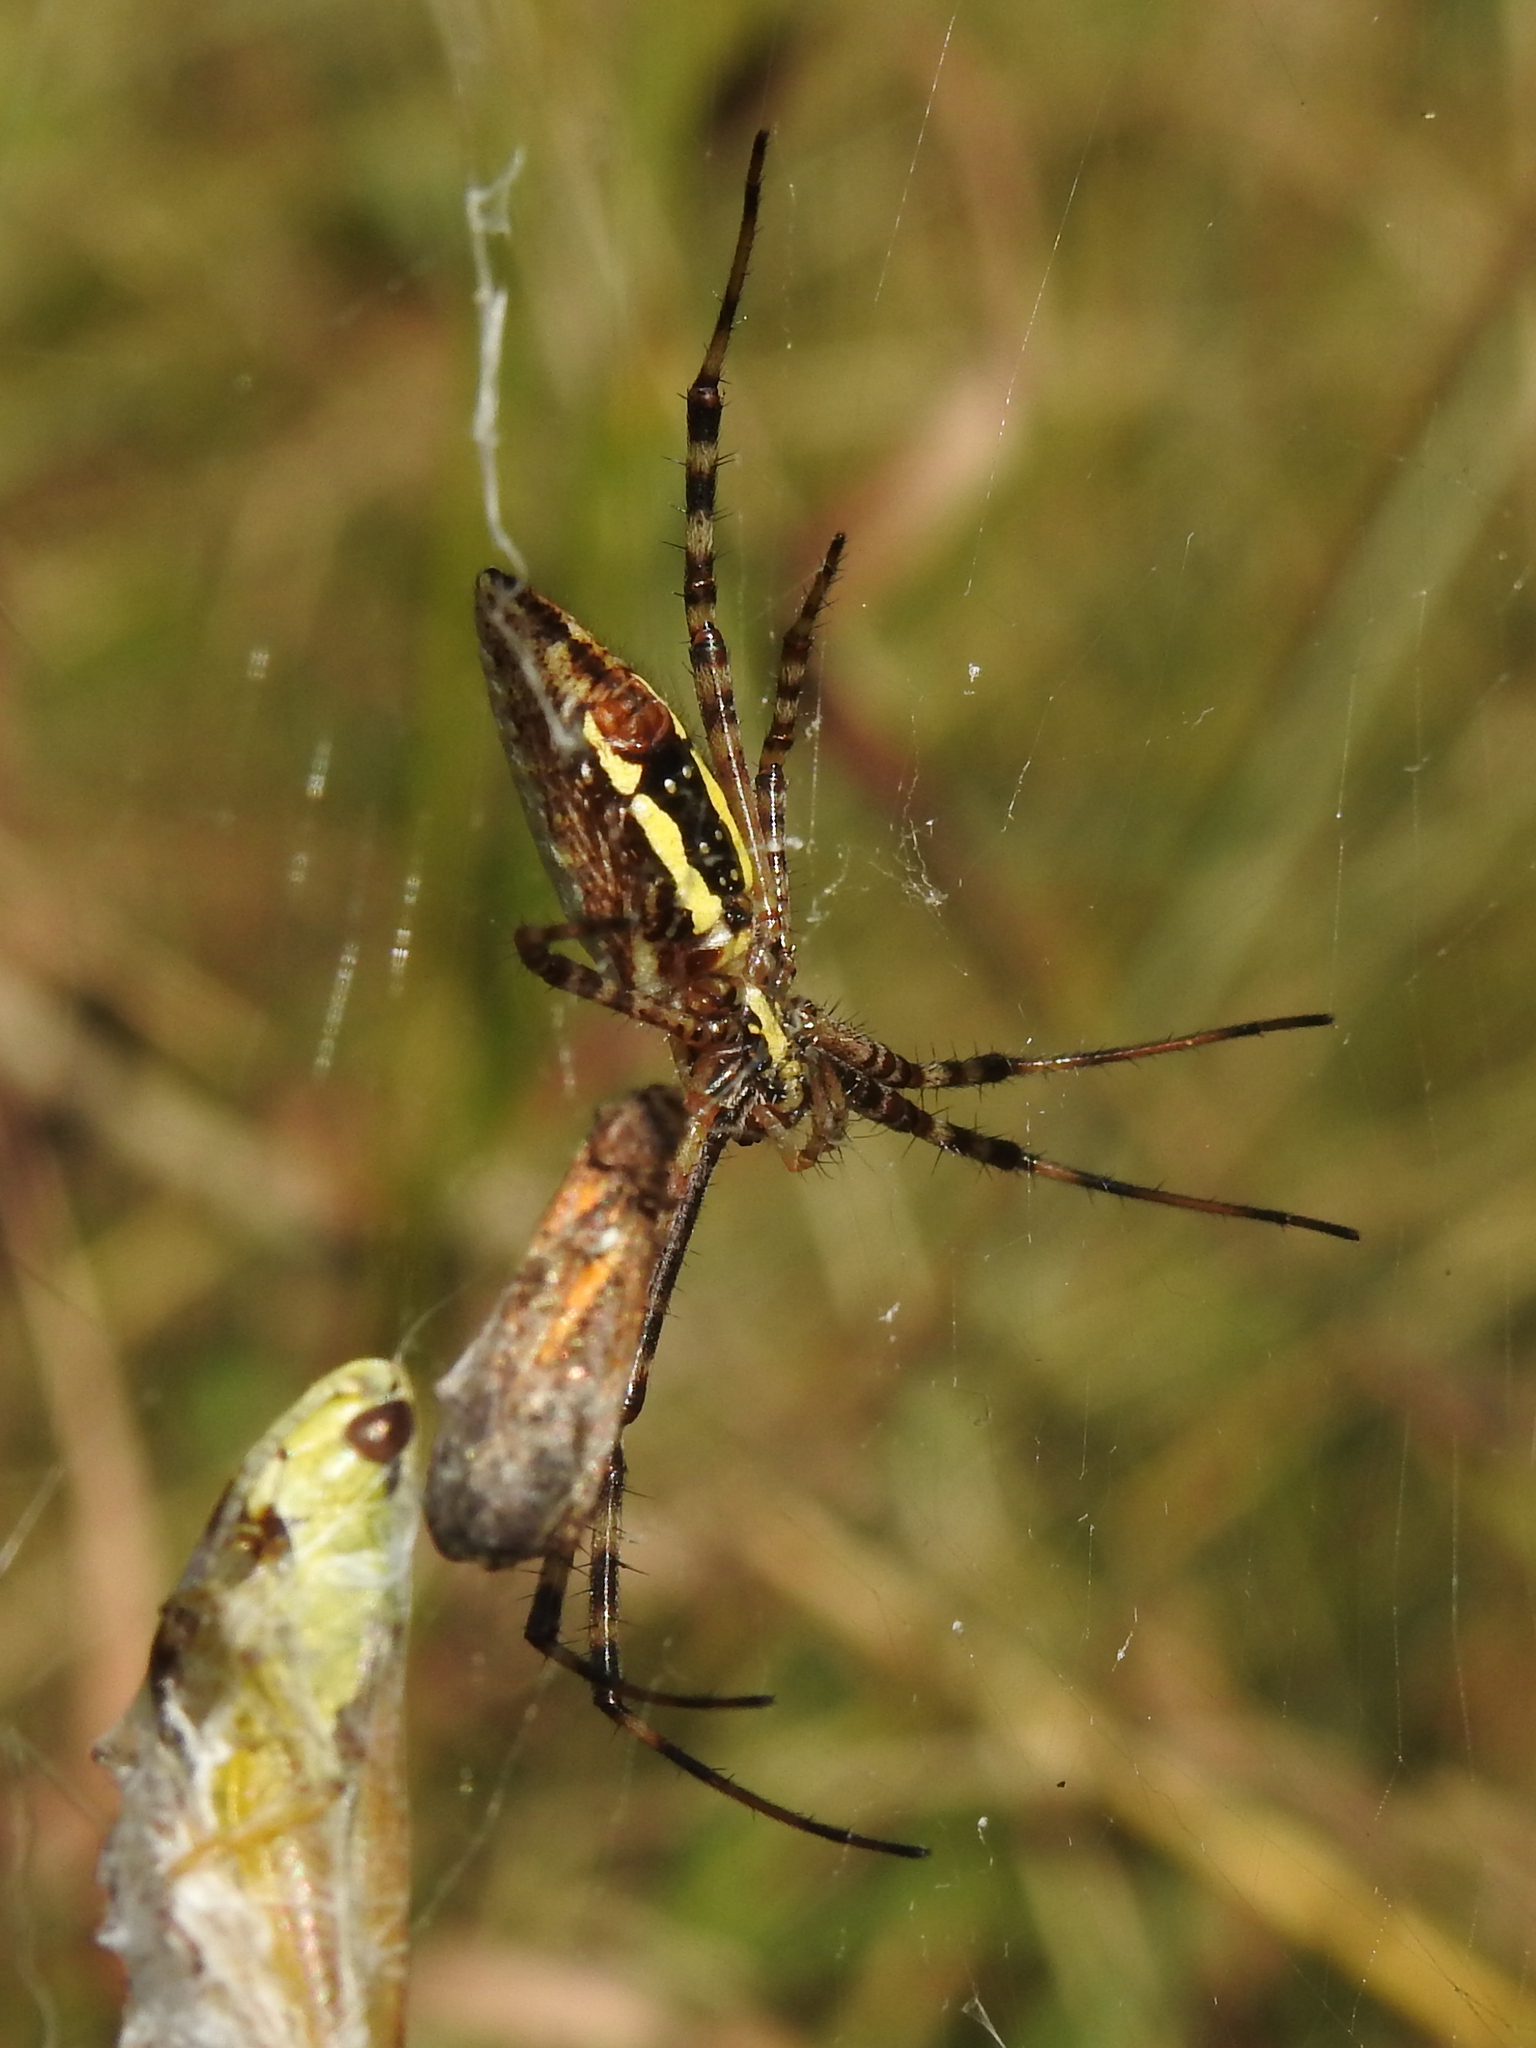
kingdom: Animalia
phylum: Arthropoda
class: Arachnida
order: Araneae
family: Araneidae
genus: Argiope
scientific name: Argiope trifasciata
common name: Banded garden spider
